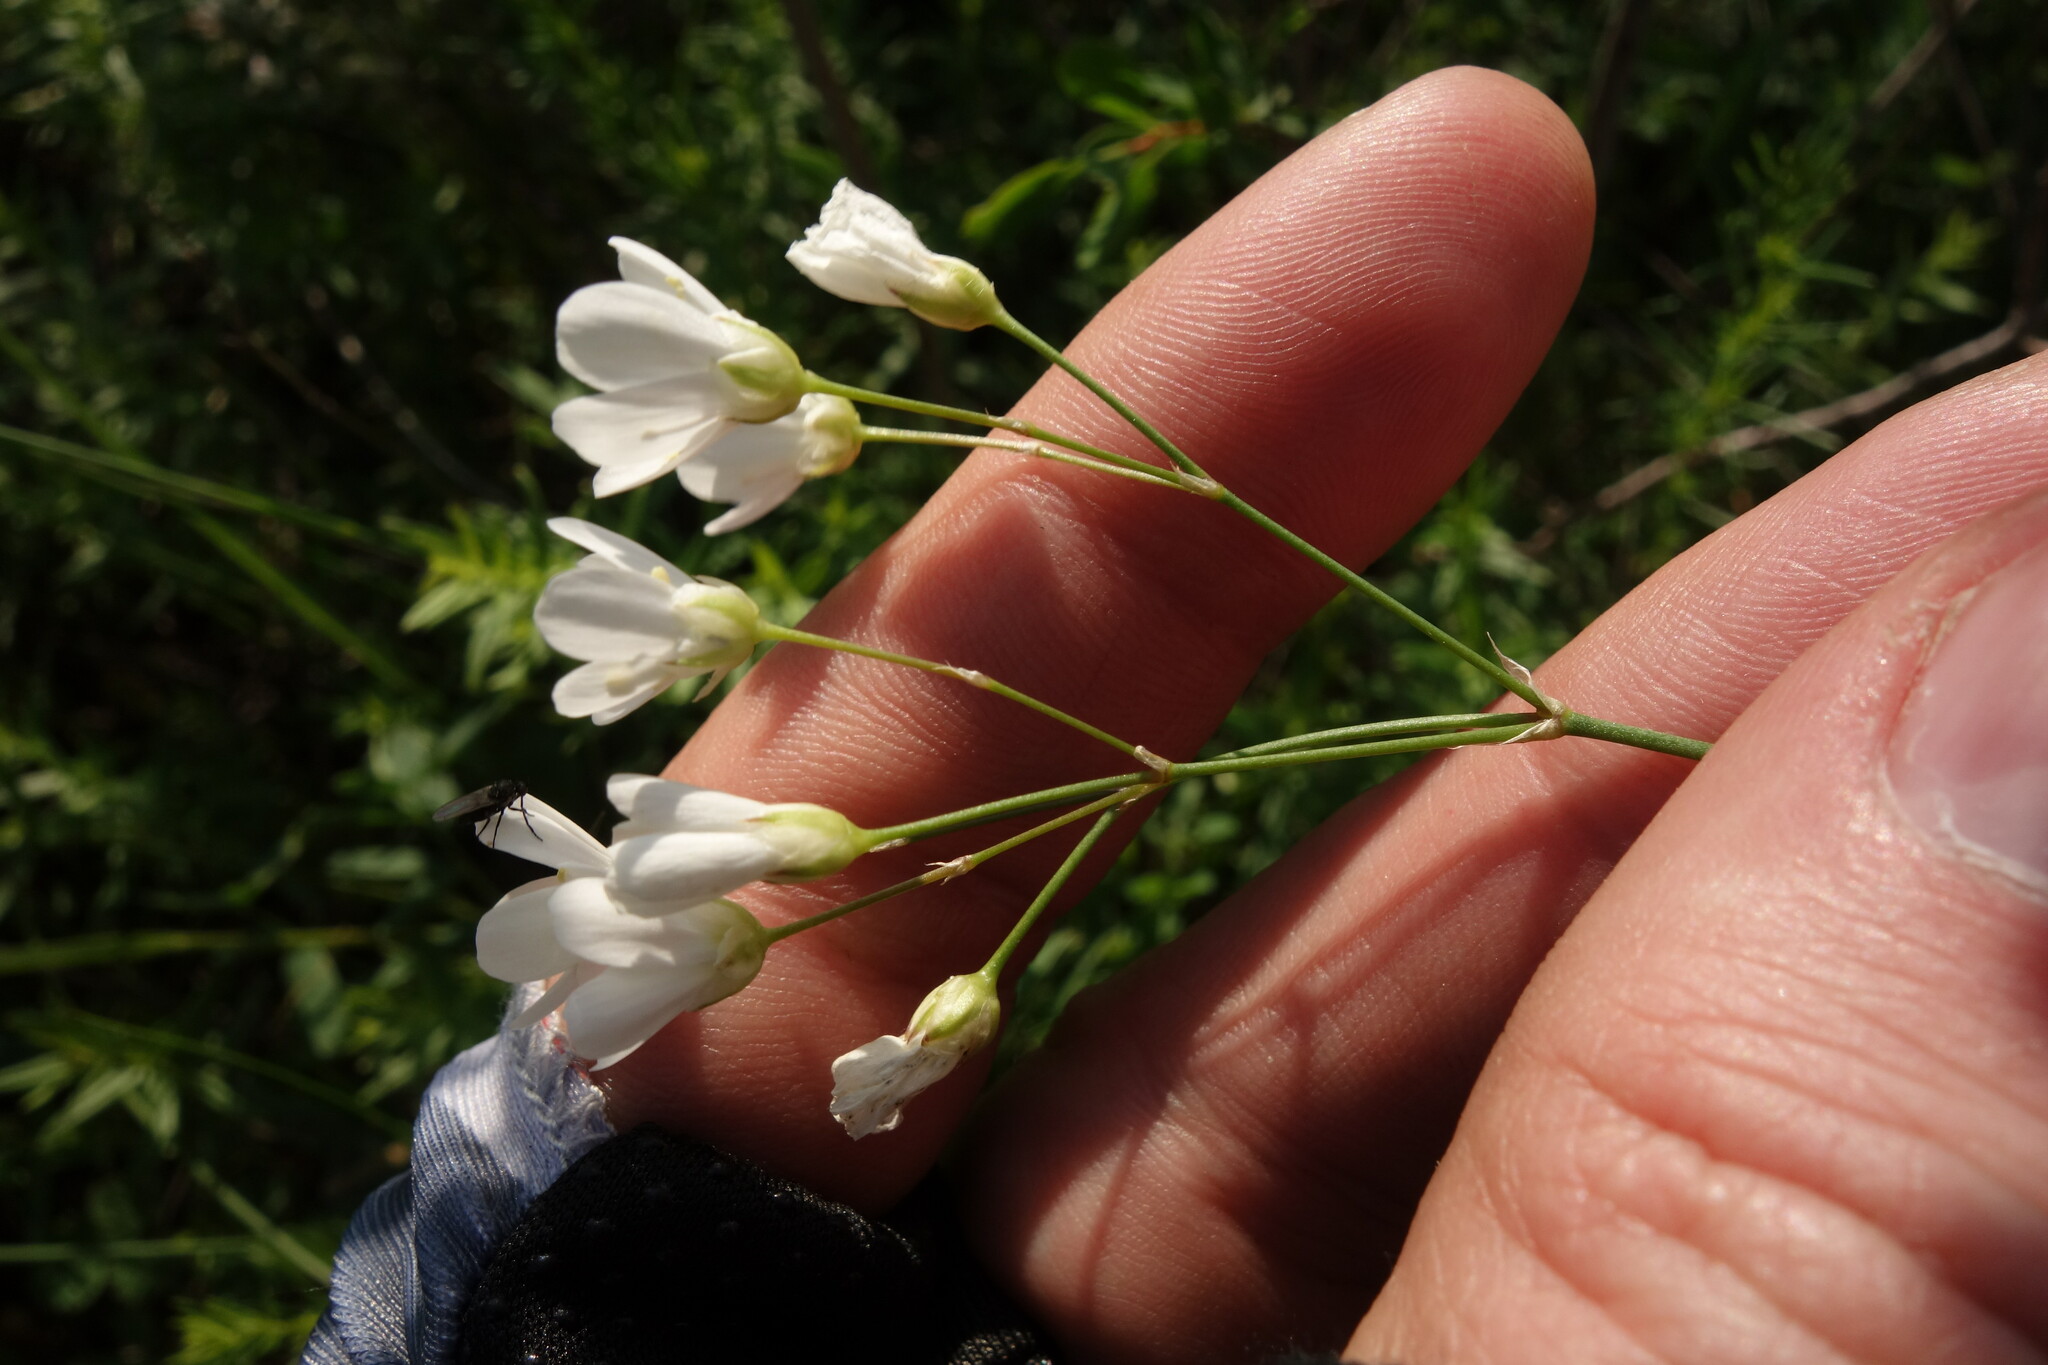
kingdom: Plantae
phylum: Tracheophyta
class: Magnoliopsida
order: Caryophyllales
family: Caryophyllaceae
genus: Eremogone
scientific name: Eremogone saxatilis
